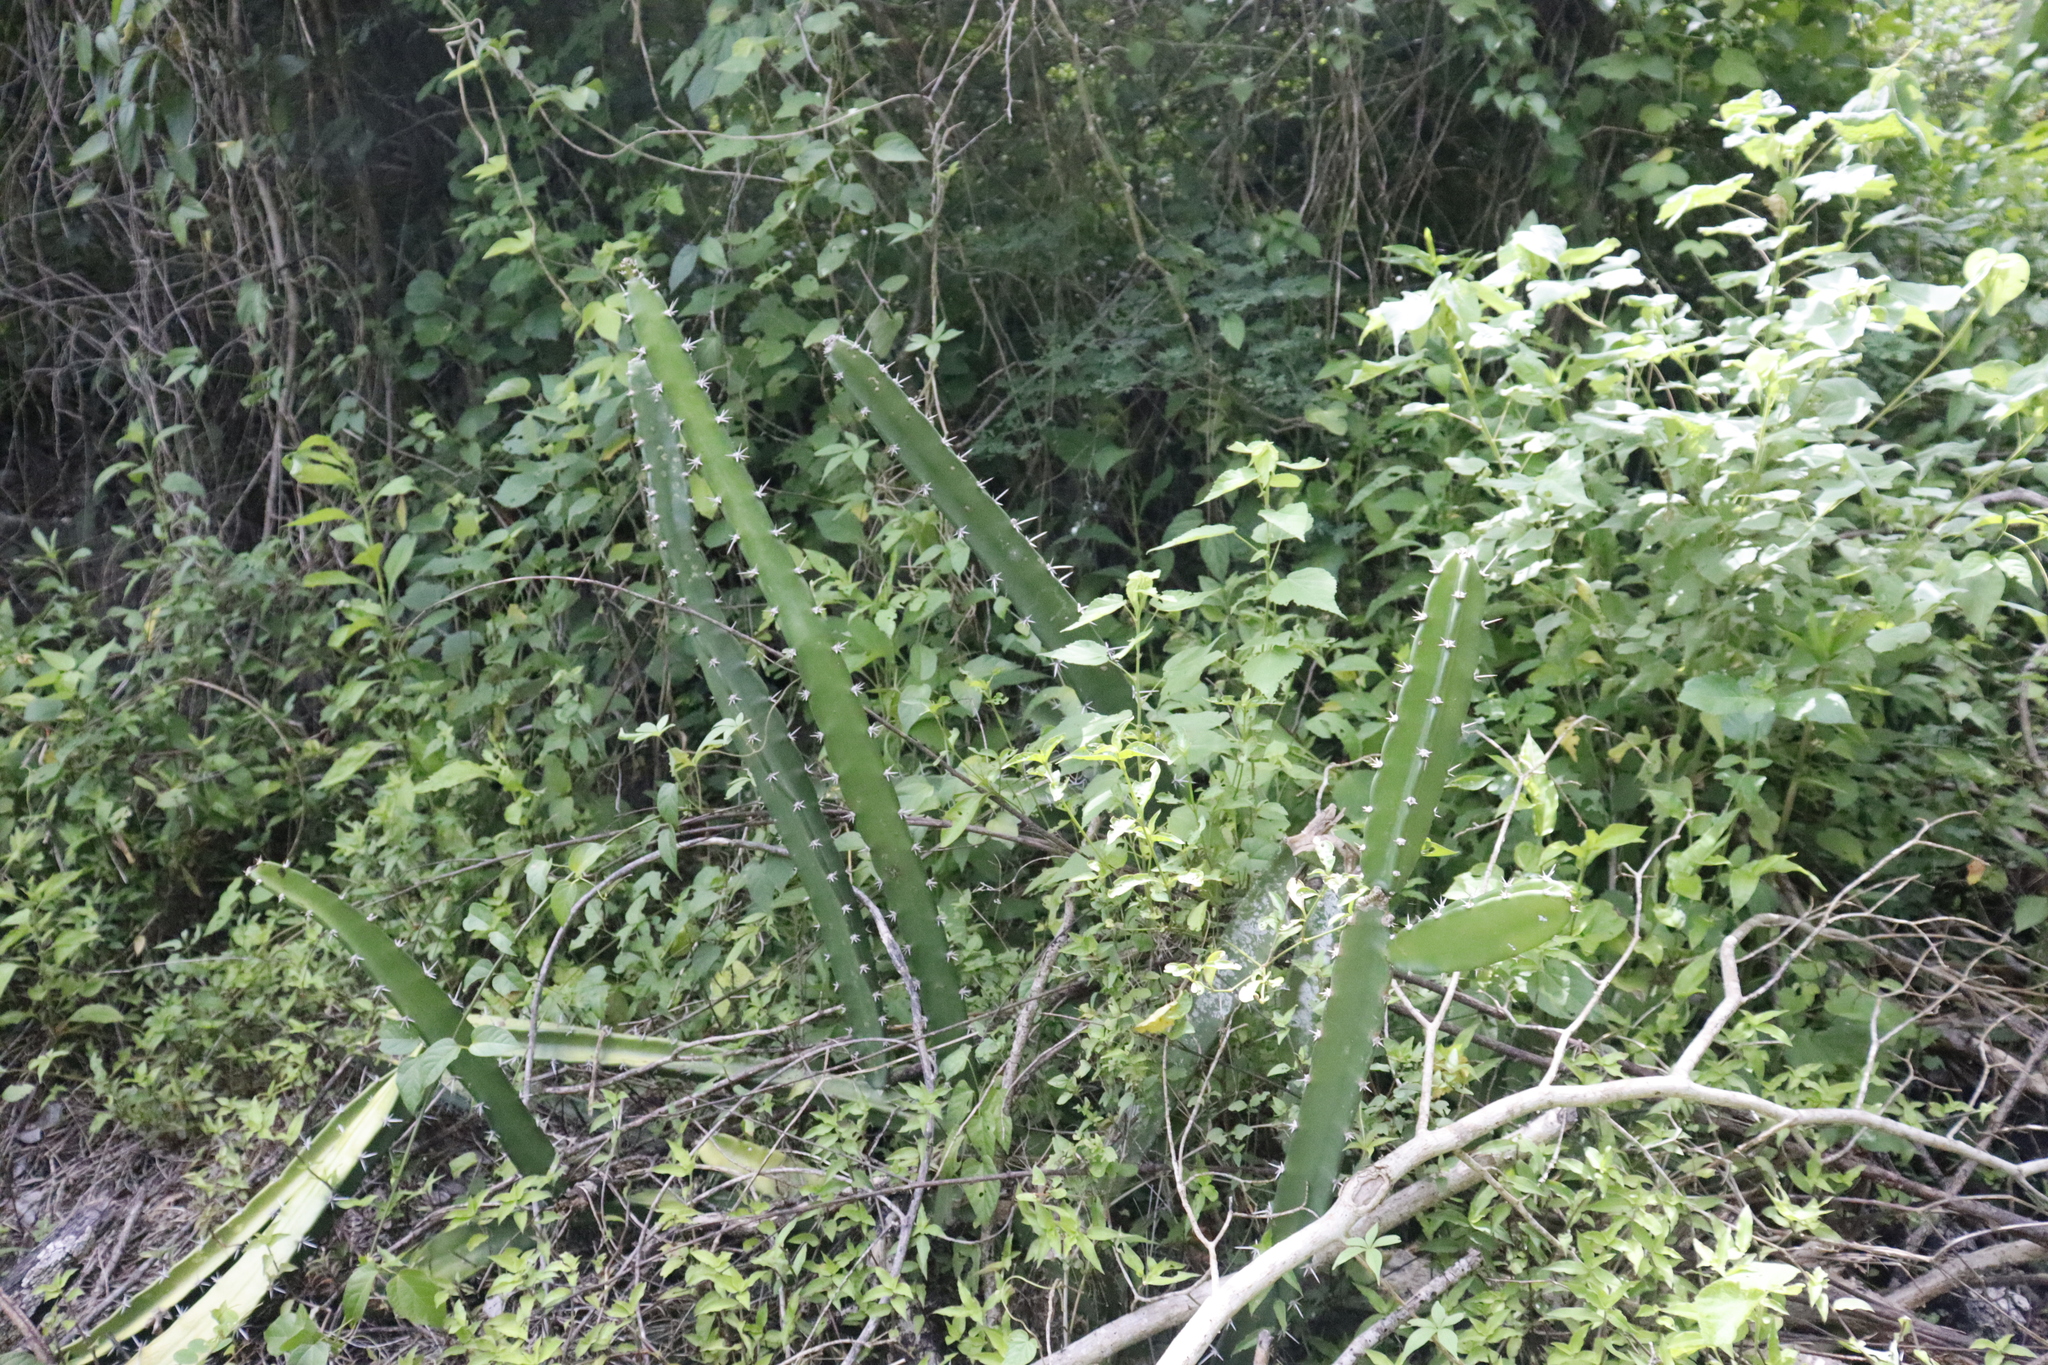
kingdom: Plantae
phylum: Tracheophyta
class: Magnoliopsida
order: Caryophyllales
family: Cactaceae
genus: Acanthocereus
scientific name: Acanthocereus tetragonus
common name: Triangle cactus
